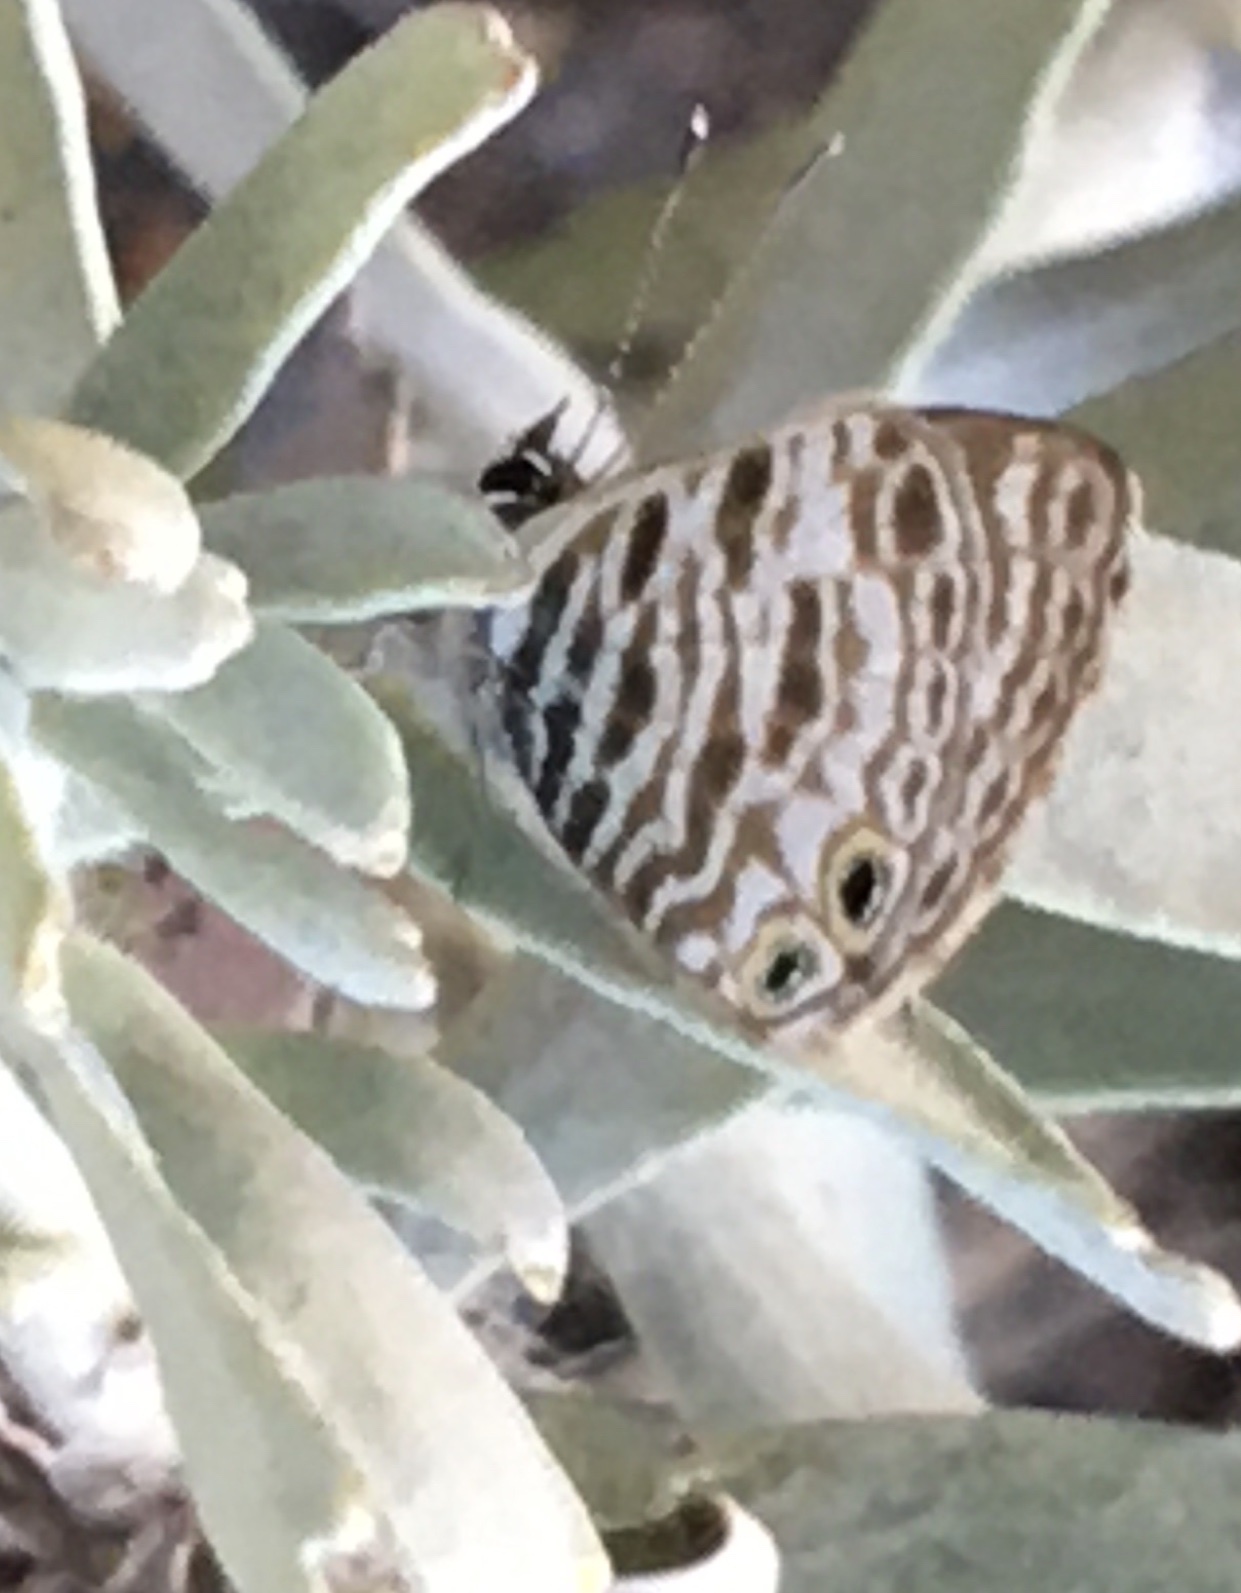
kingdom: Animalia
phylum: Arthropoda
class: Insecta
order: Lepidoptera
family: Lycaenidae
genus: Leptotes
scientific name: Leptotes
